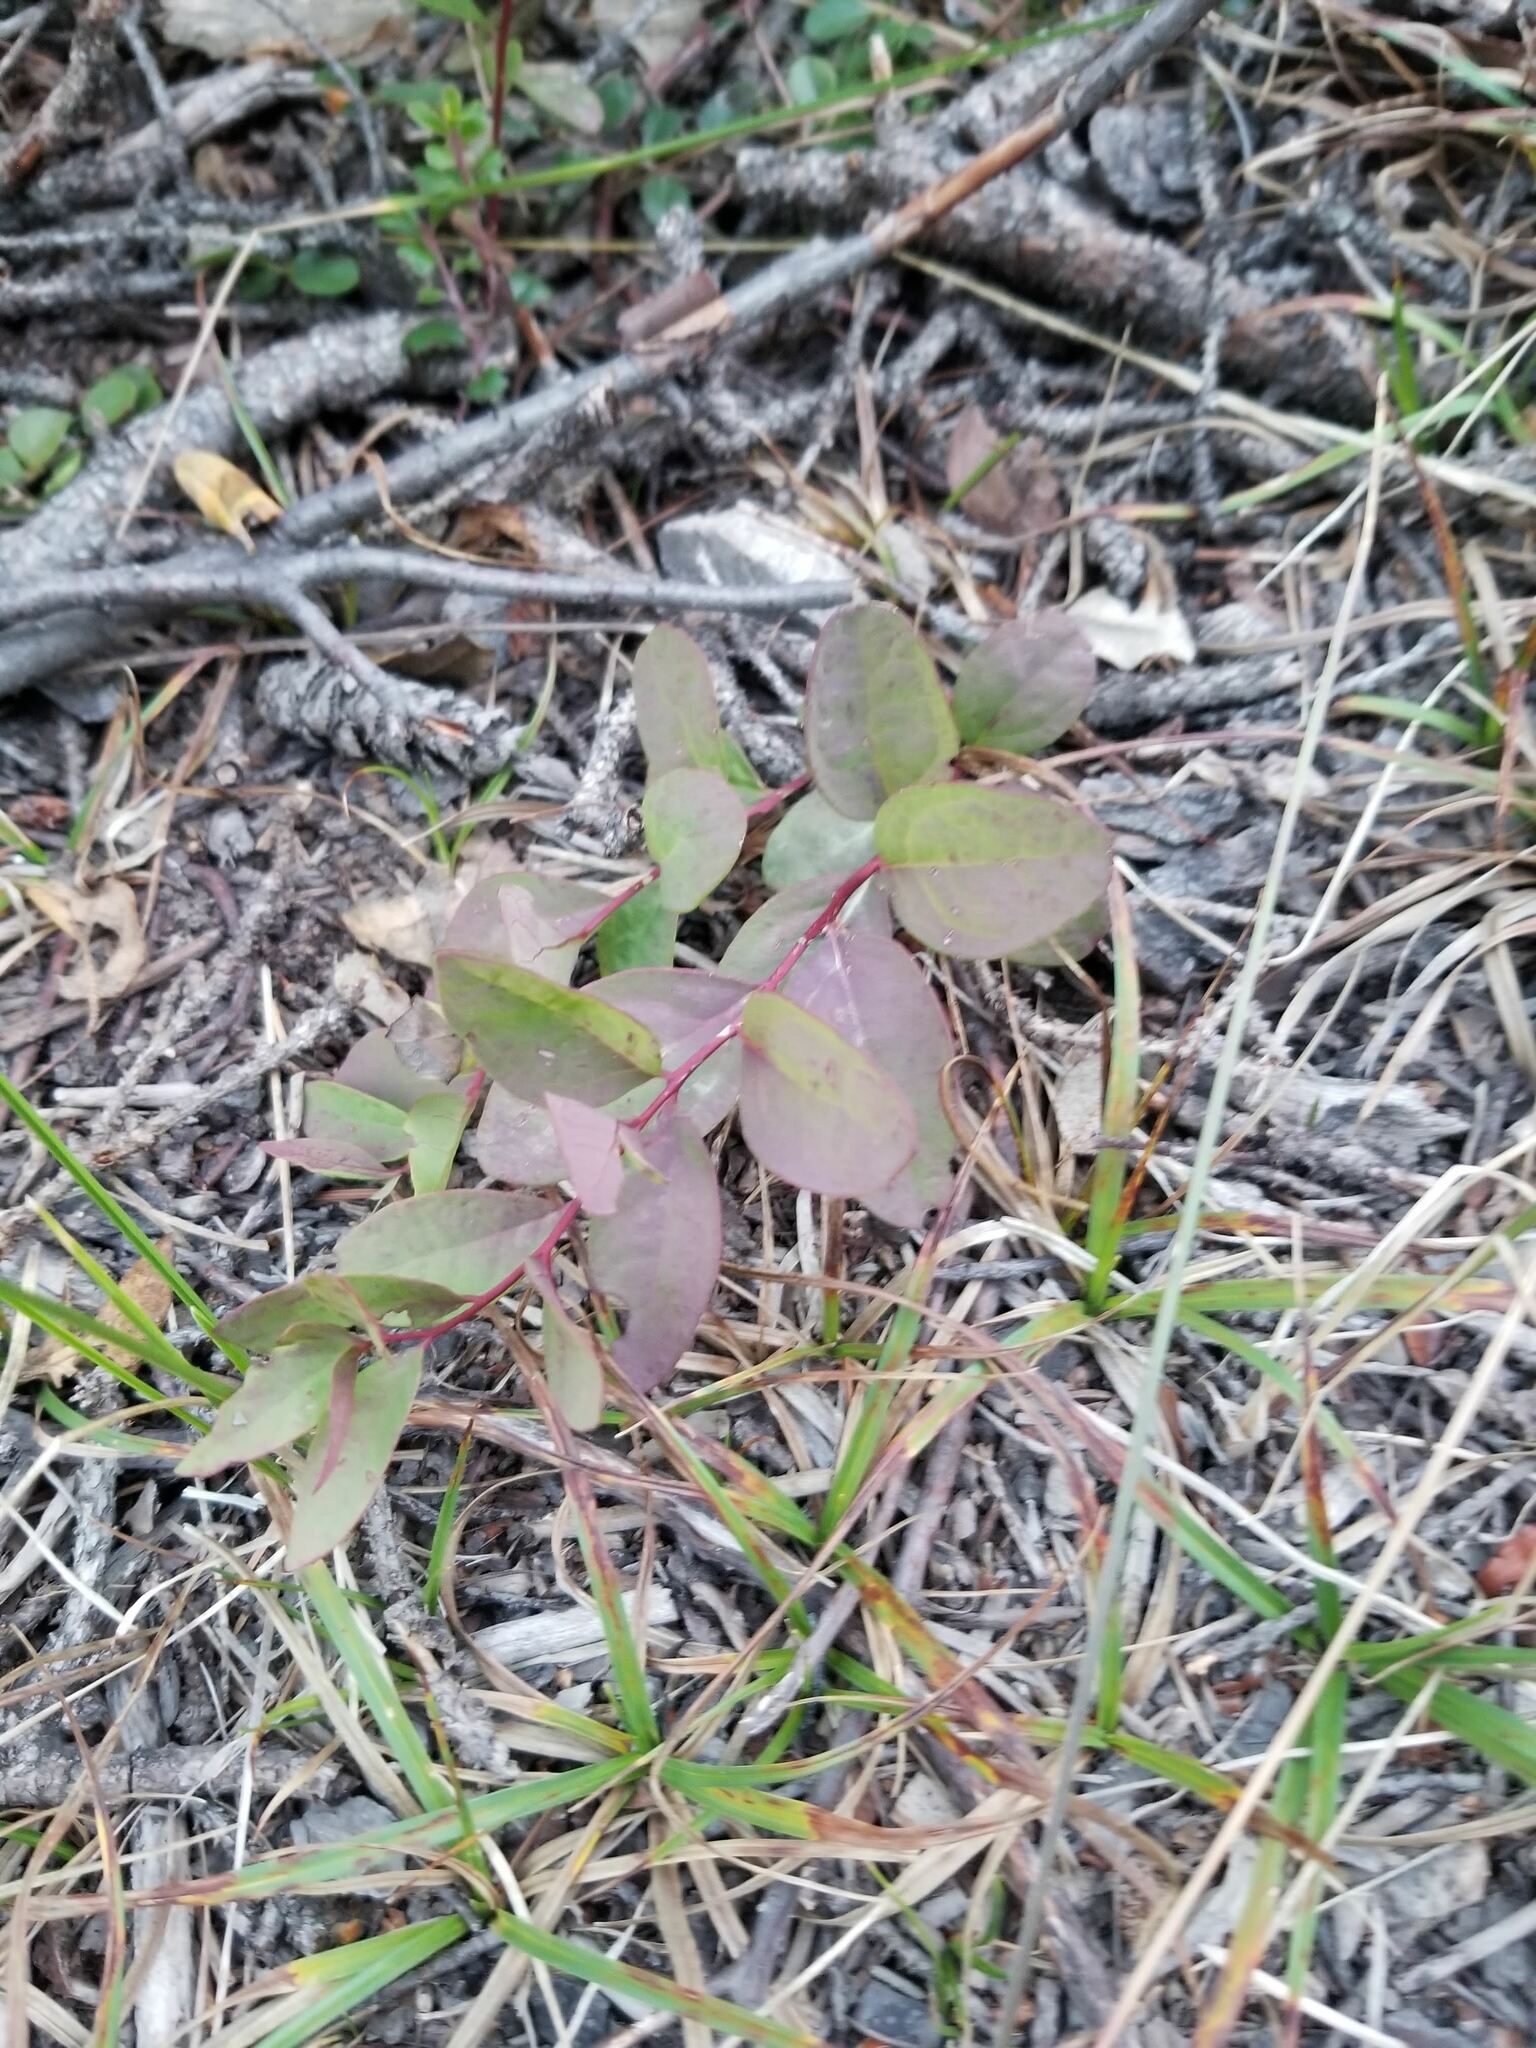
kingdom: Plantae
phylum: Tracheophyta
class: Magnoliopsida
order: Santalales
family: Comandraceae
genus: Geocaulon
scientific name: Geocaulon lividum
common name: Earthberry
